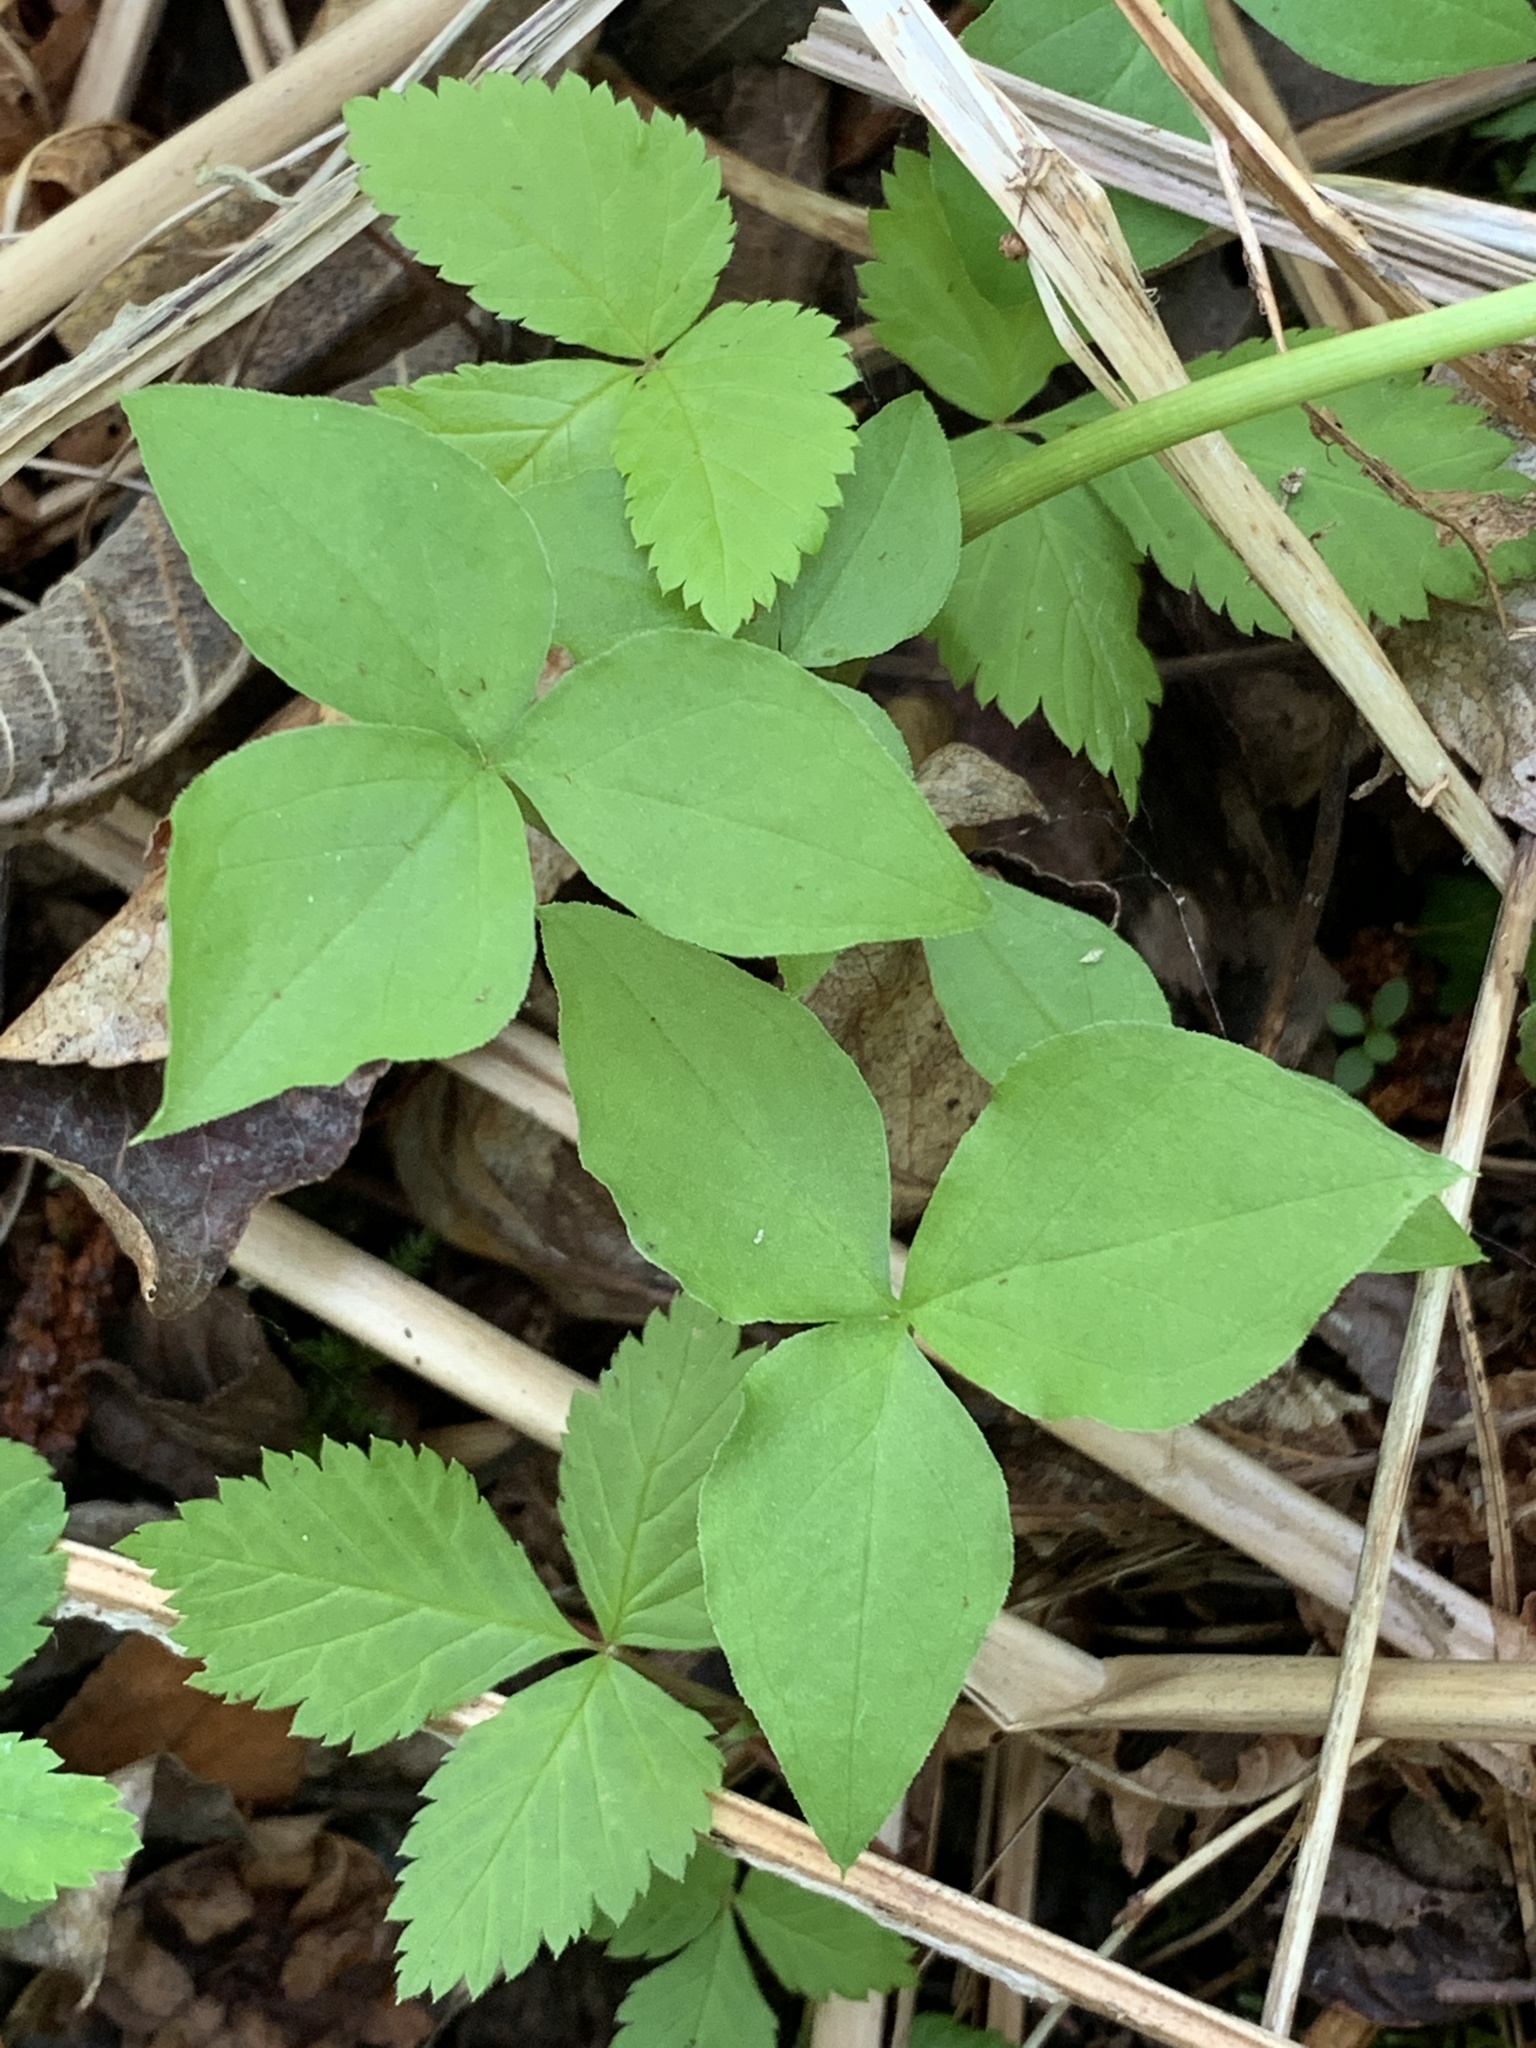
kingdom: Plantae
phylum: Tracheophyta
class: Liliopsida
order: Alismatales
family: Araceae
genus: Arisaema
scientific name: Arisaema triphyllum
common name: Jack-in-the-pulpit
